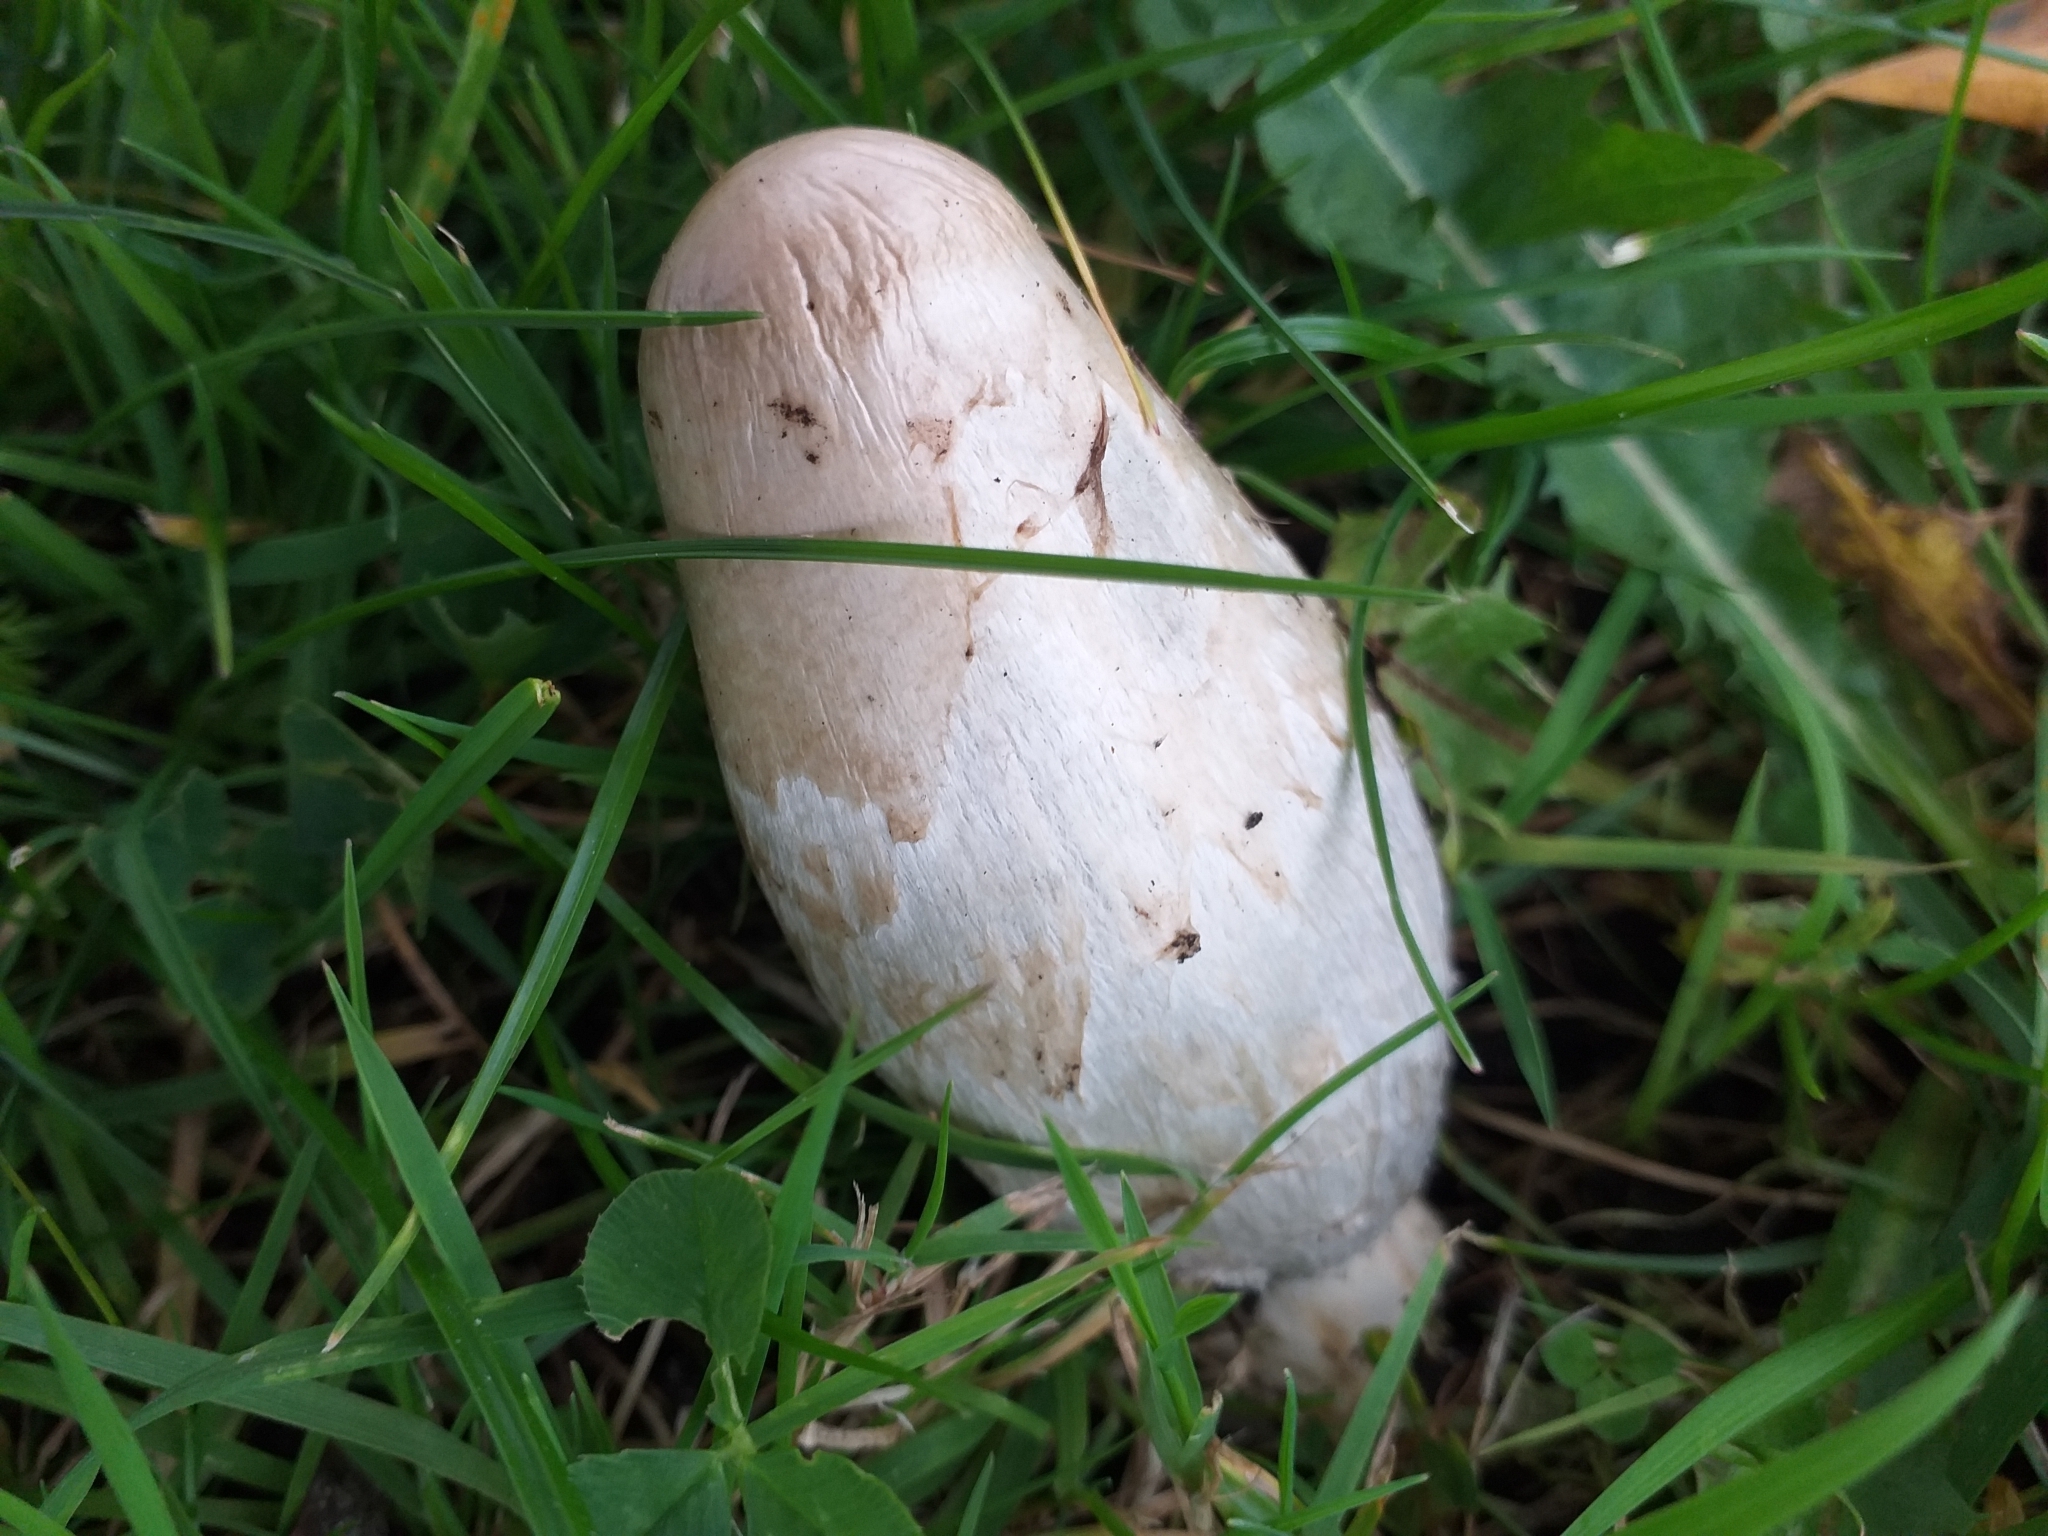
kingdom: Fungi
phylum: Basidiomycota
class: Agaricomycetes
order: Agaricales
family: Agaricaceae
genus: Coprinus
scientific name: Coprinus comatus
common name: Lawyer's wig
